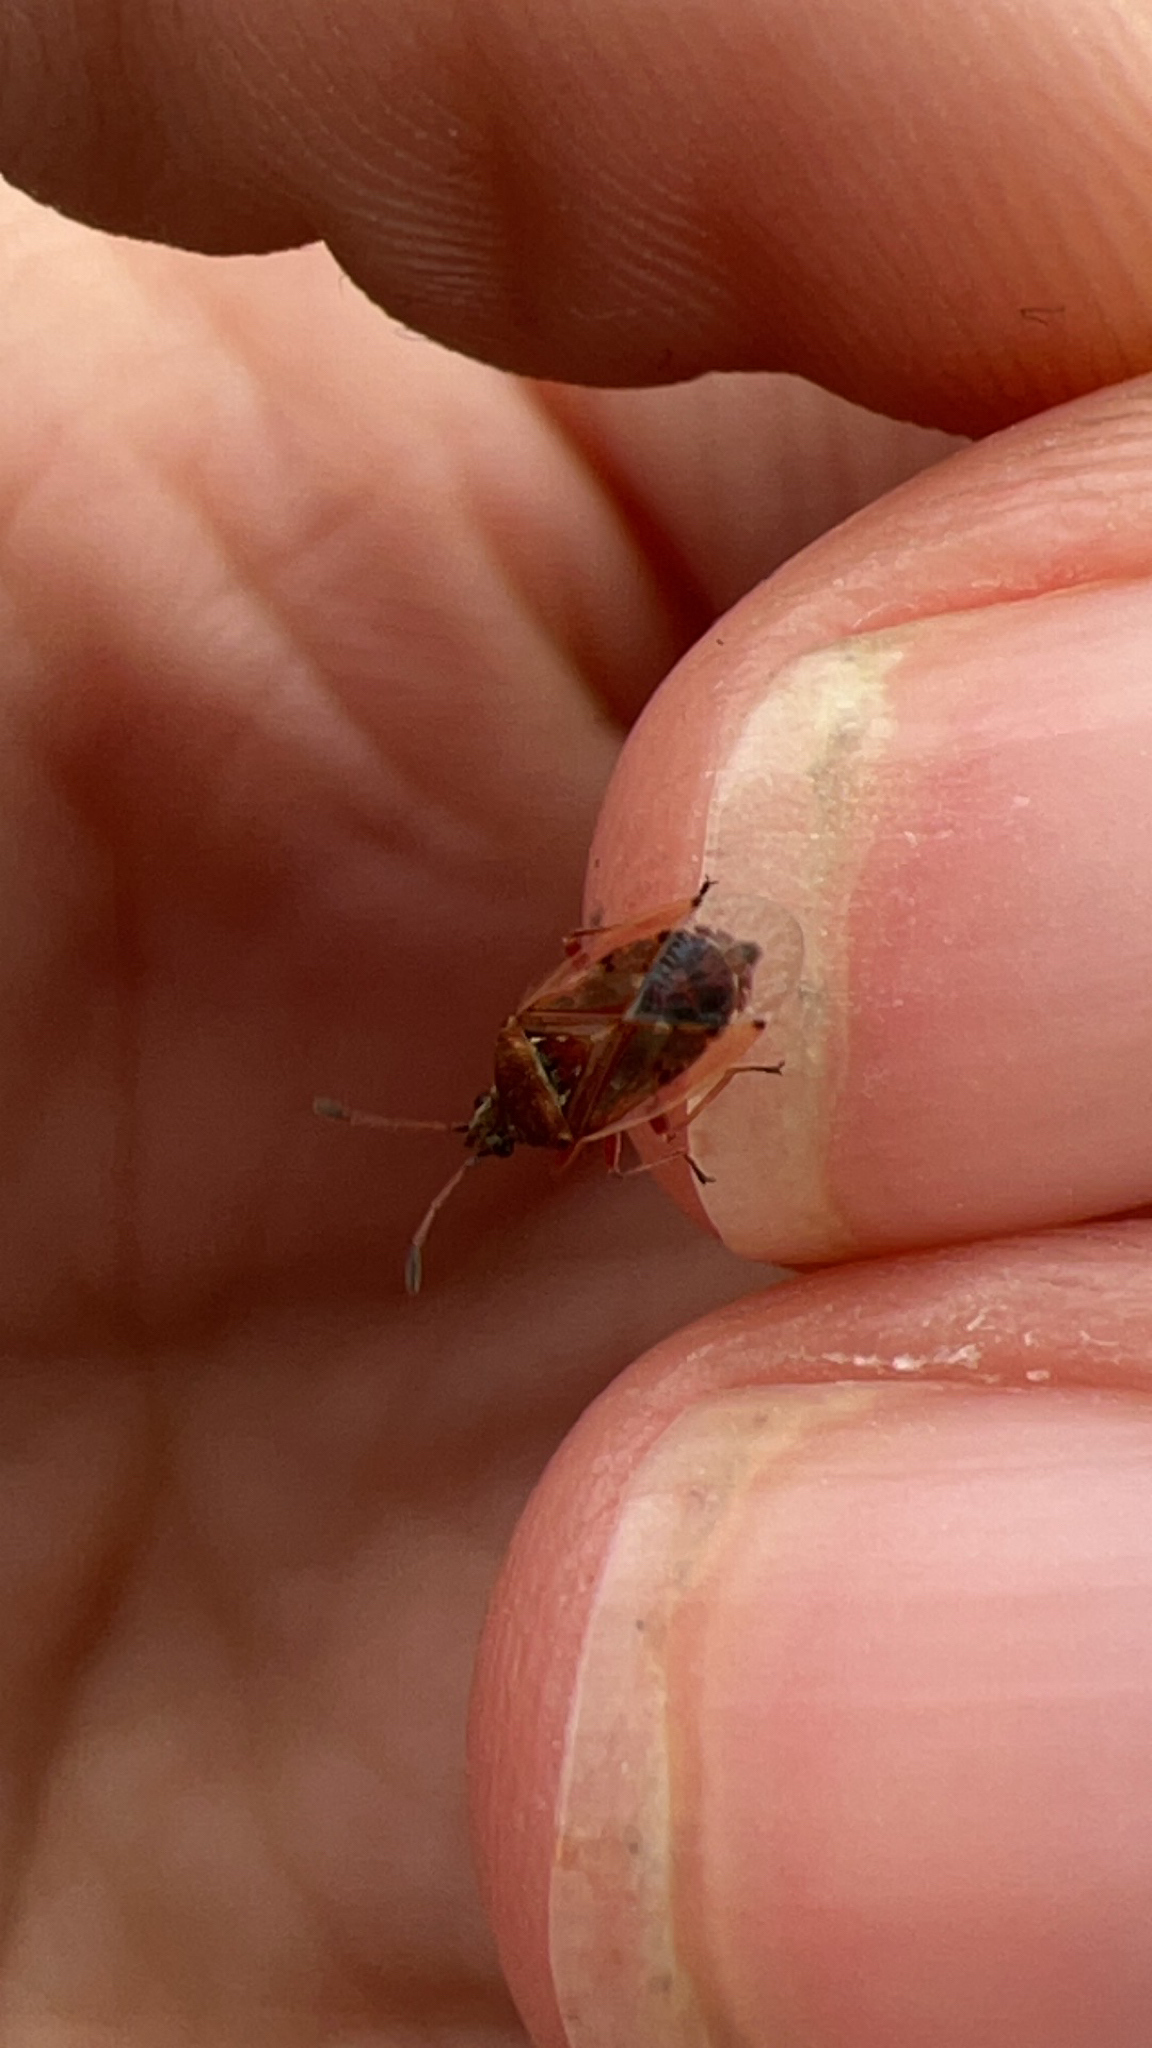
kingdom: Animalia
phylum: Arthropoda
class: Insecta
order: Hemiptera
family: Lygaeidae
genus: Kleidocerys
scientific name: Kleidocerys resedae
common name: Birch catkin bug
